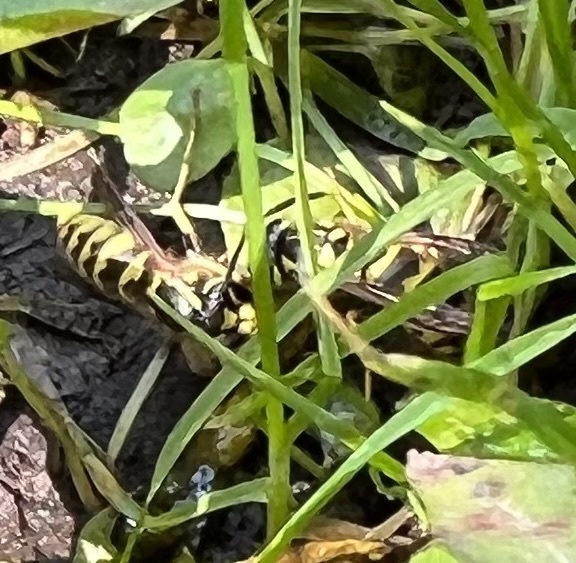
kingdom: Animalia
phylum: Arthropoda
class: Insecta
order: Hymenoptera
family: Vespidae
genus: Vespula
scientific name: Vespula flavopilosa
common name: Downy yellowjacket
